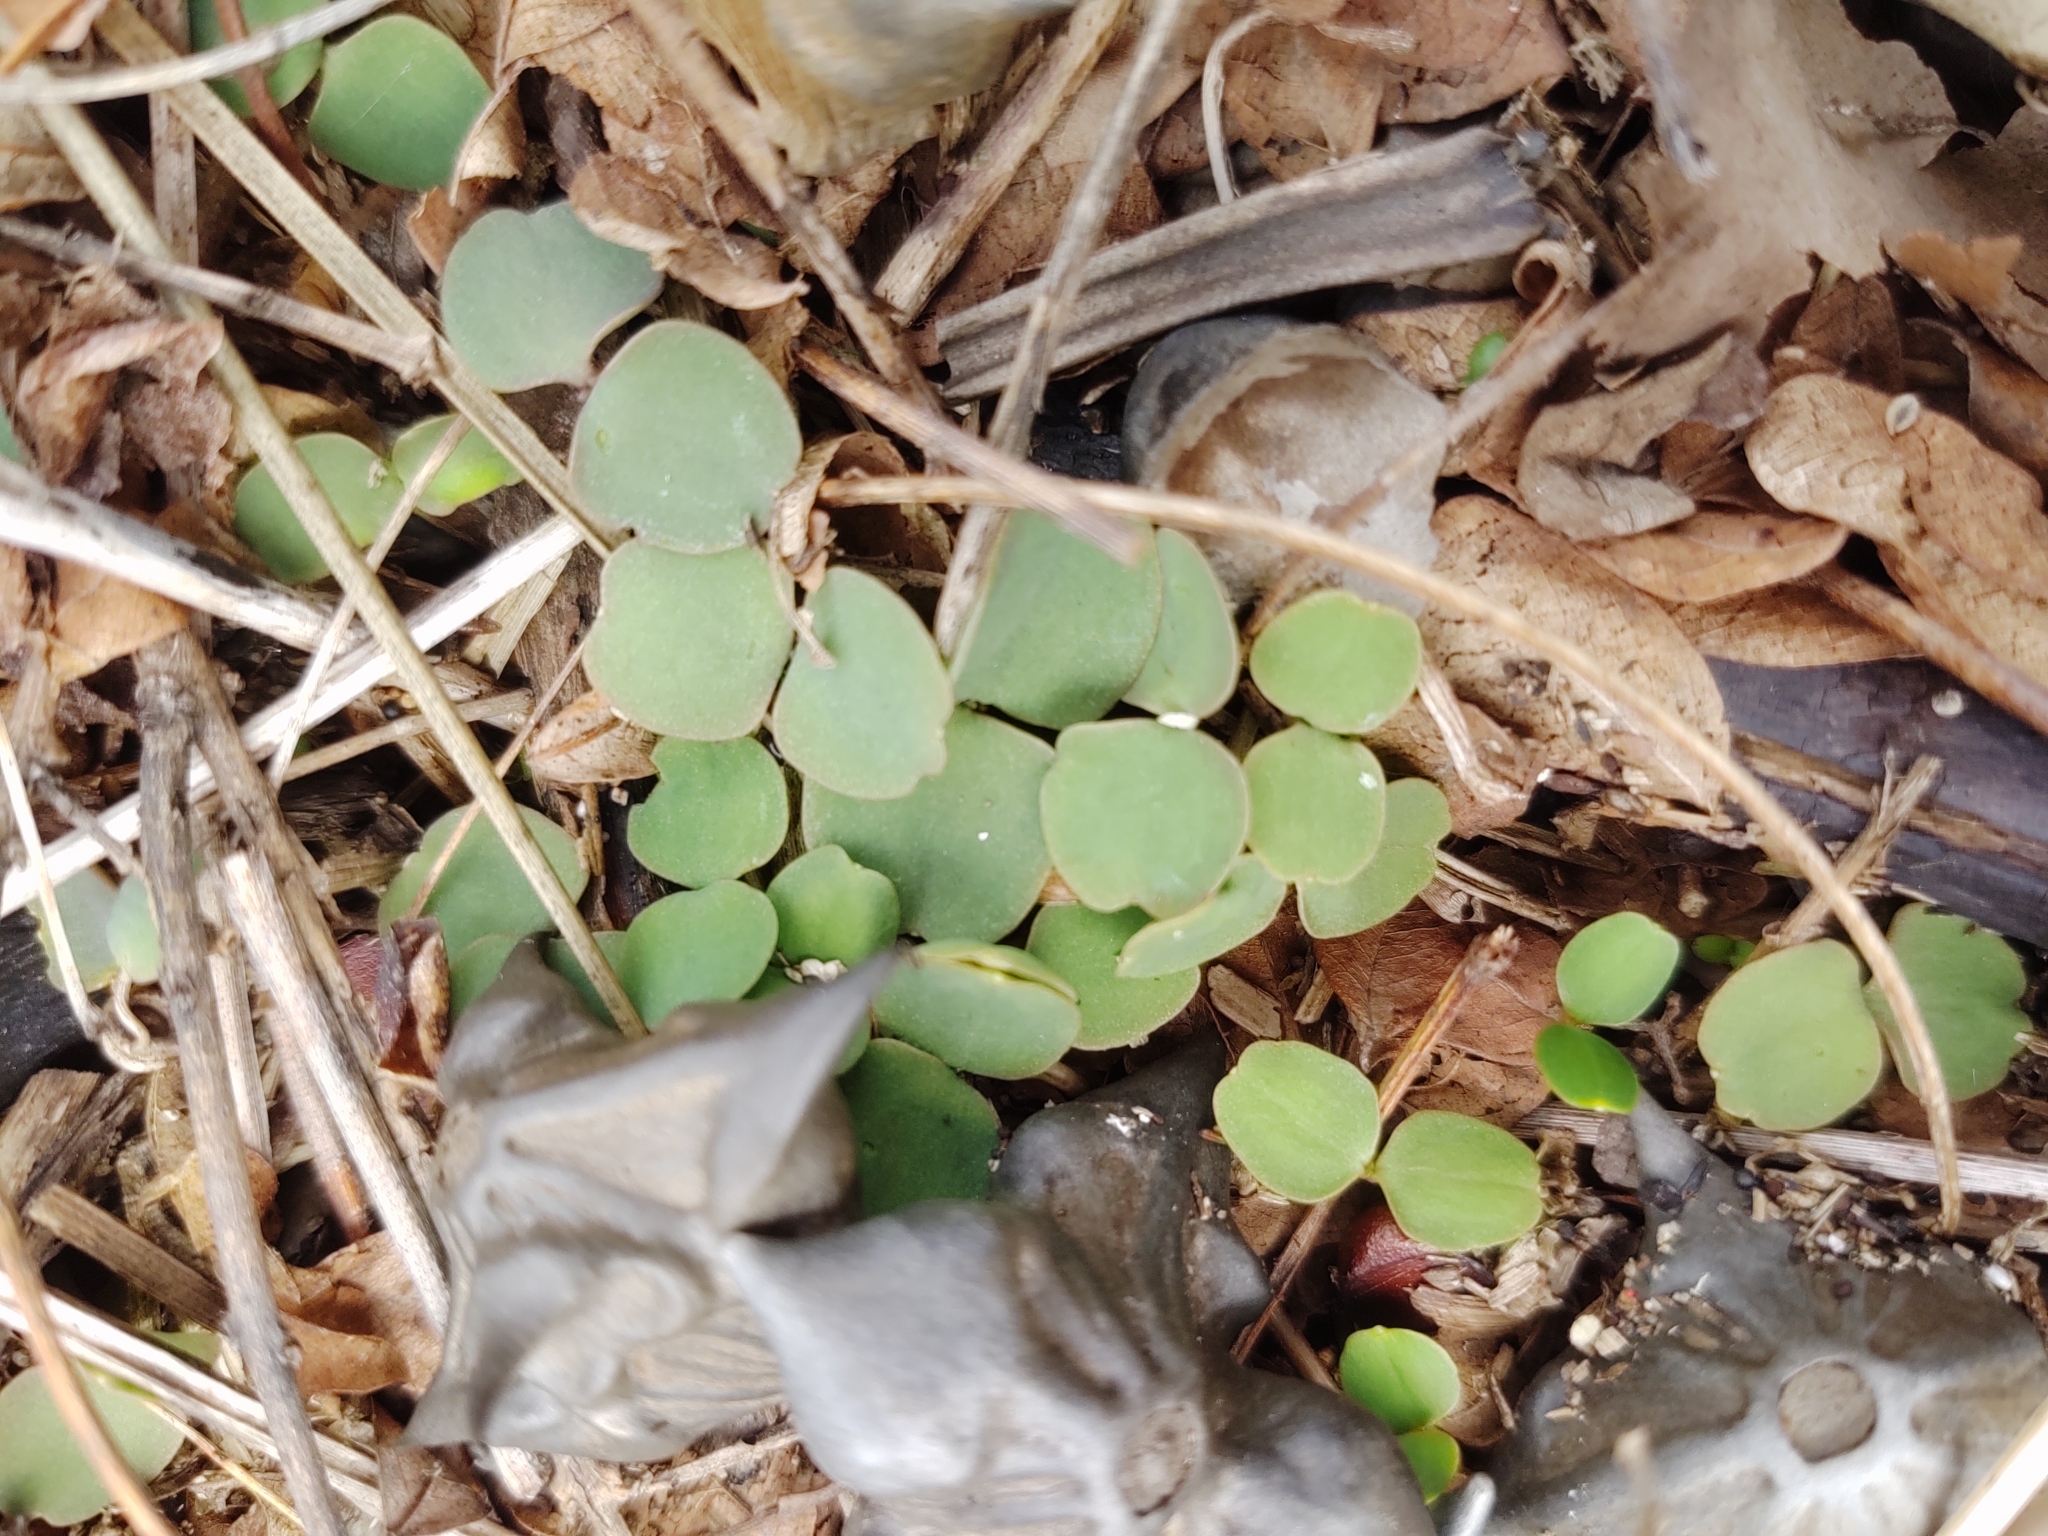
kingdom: Plantae
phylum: Tracheophyta
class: Magnoliopsida
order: Myrtales
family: Lythraceae
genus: Trapa
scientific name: Trapa natans
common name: Water chestnut
